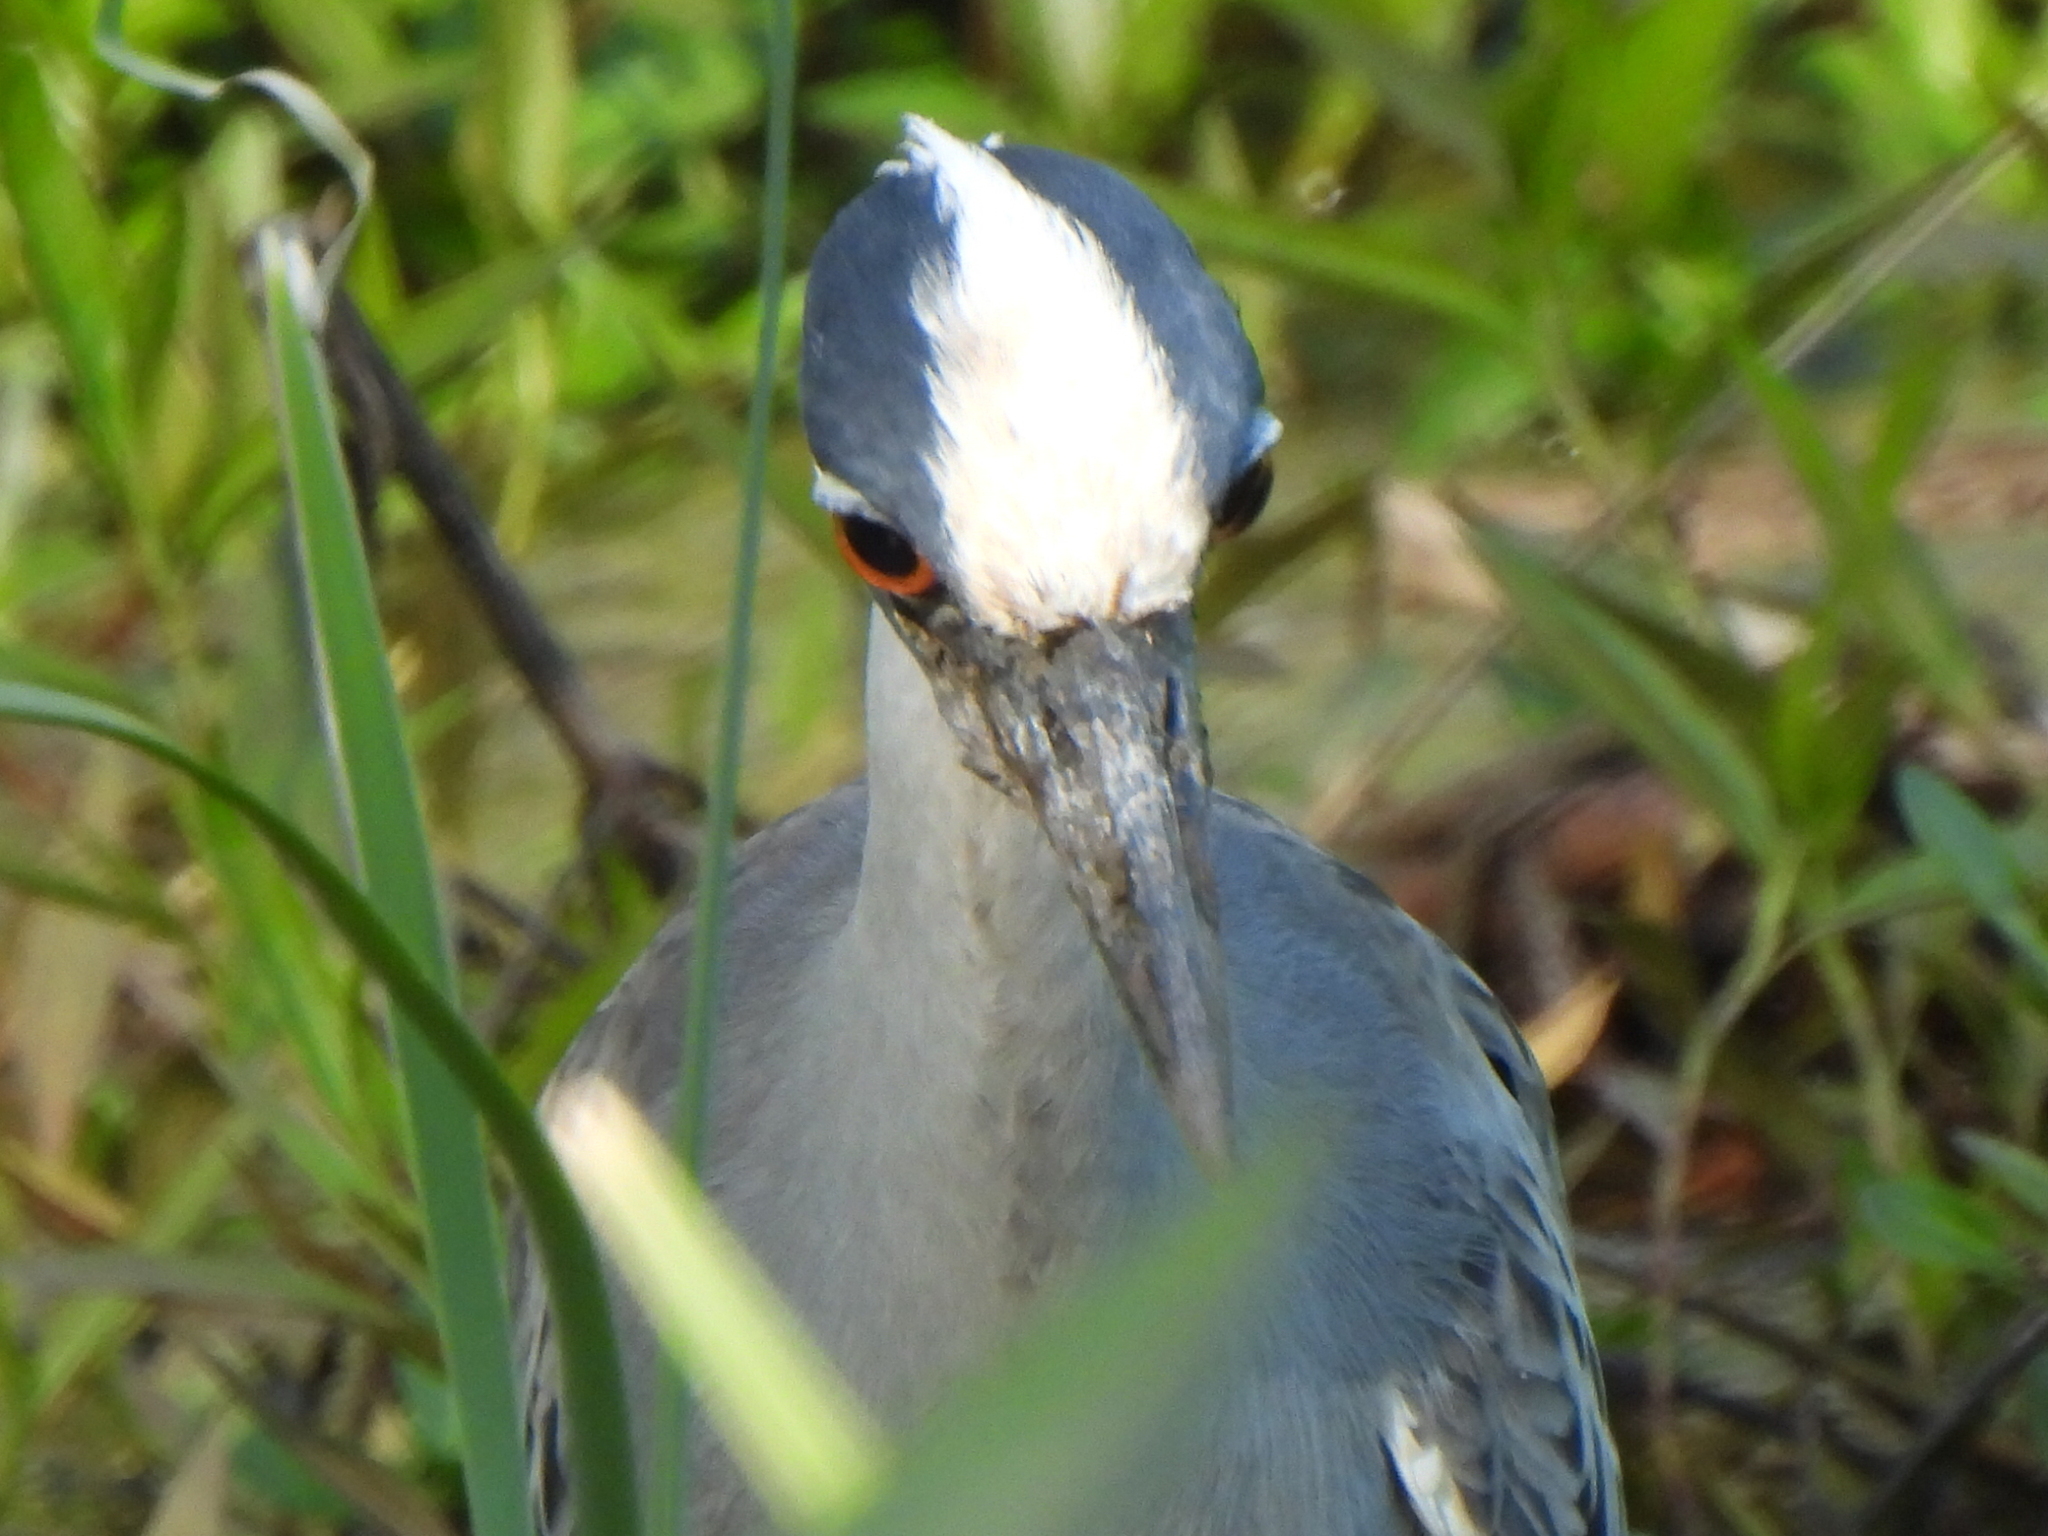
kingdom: Animalia
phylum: Chordata
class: Aves
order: Pelecaniformes
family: Ardeidae
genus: Nyctanassa
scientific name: Nyctanassa violacea
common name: Yellow-crowned night heron
